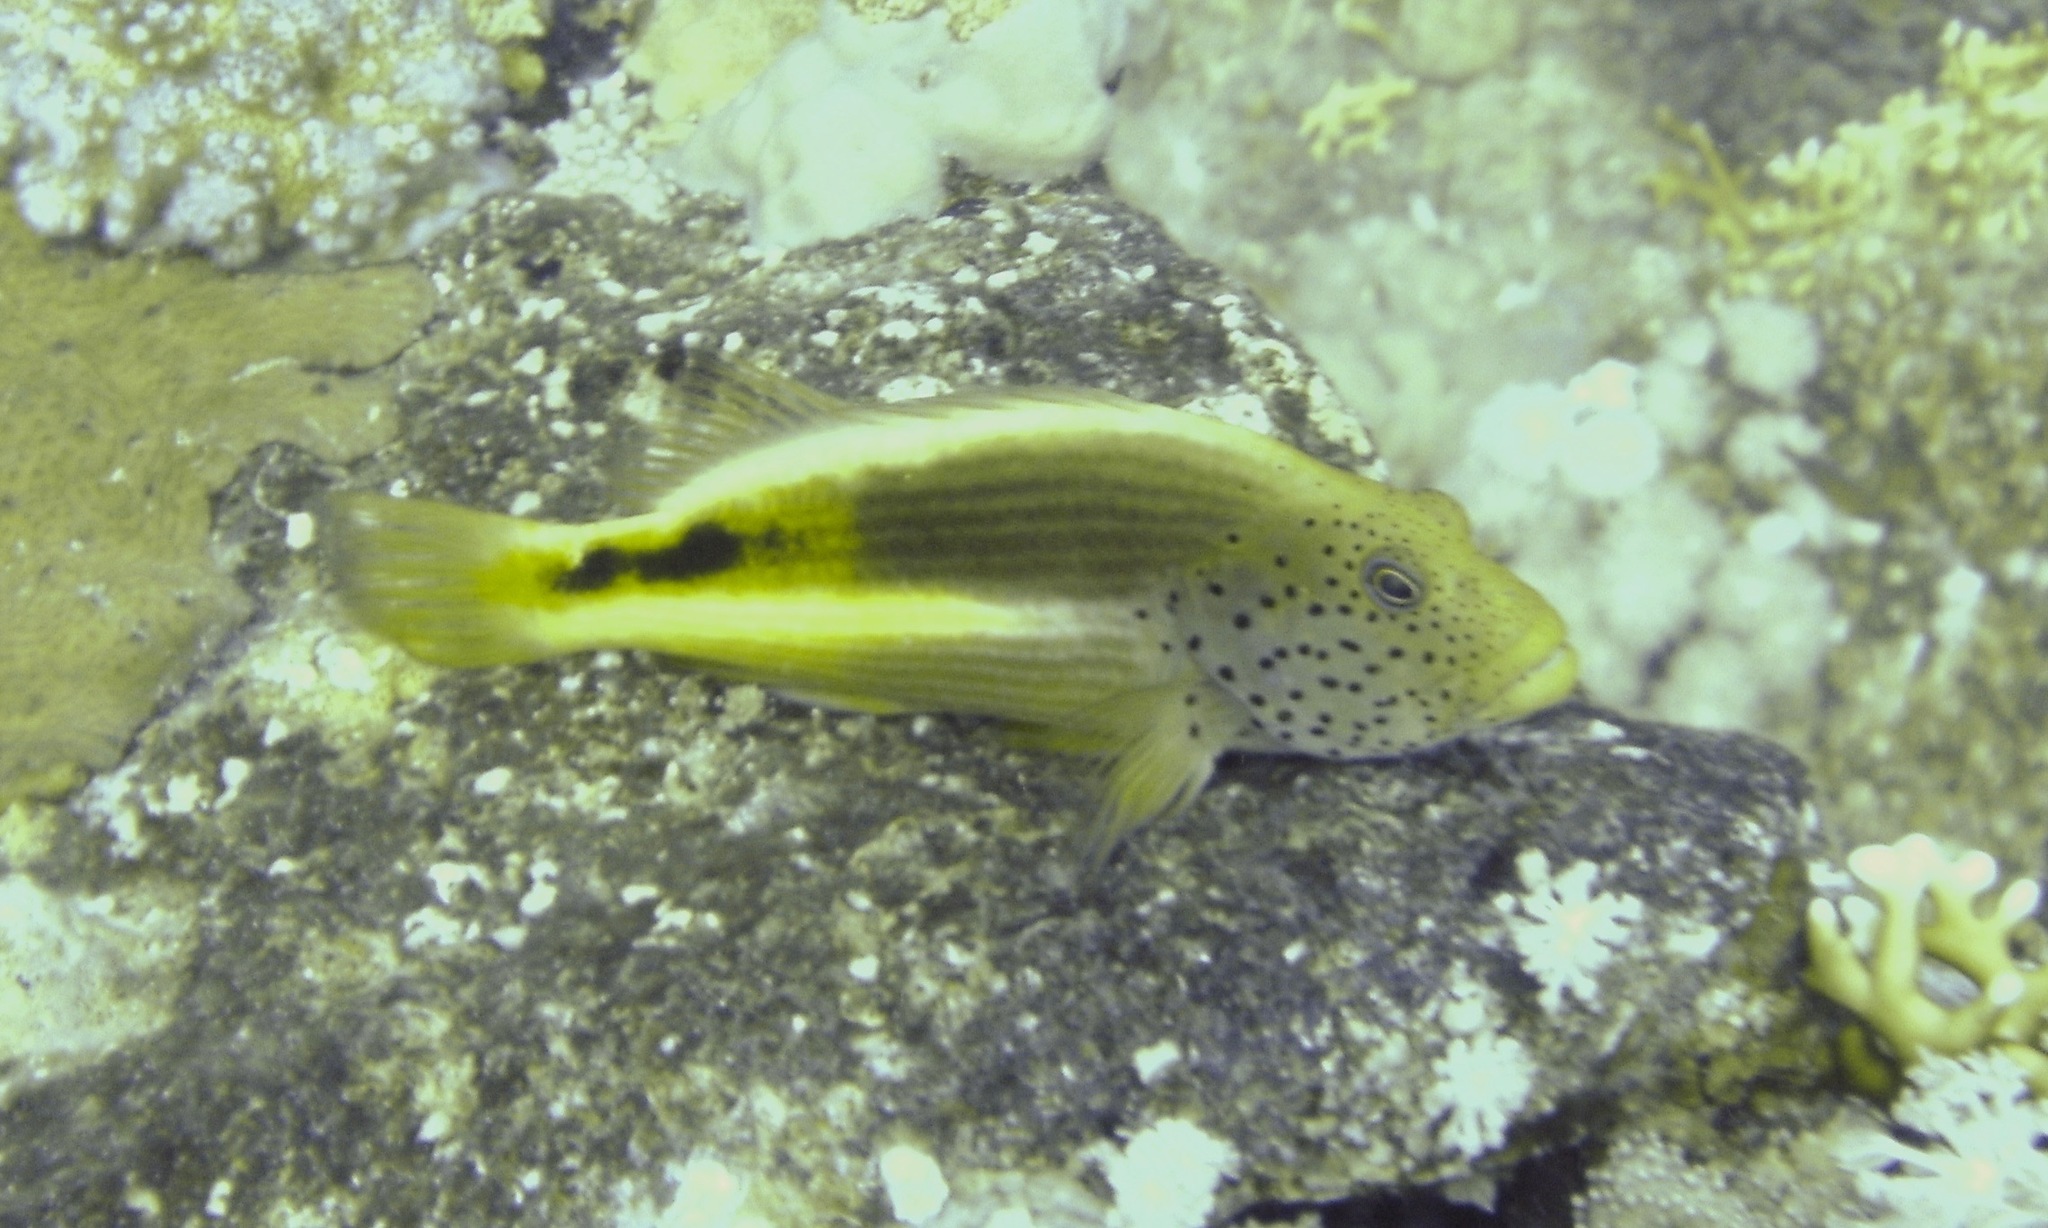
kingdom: Animalia
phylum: Chordata
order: Perciformes
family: Cirrhitidae
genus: Paracirrhites
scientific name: Paracirrhites forsteri
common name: Freckled hawkfish
